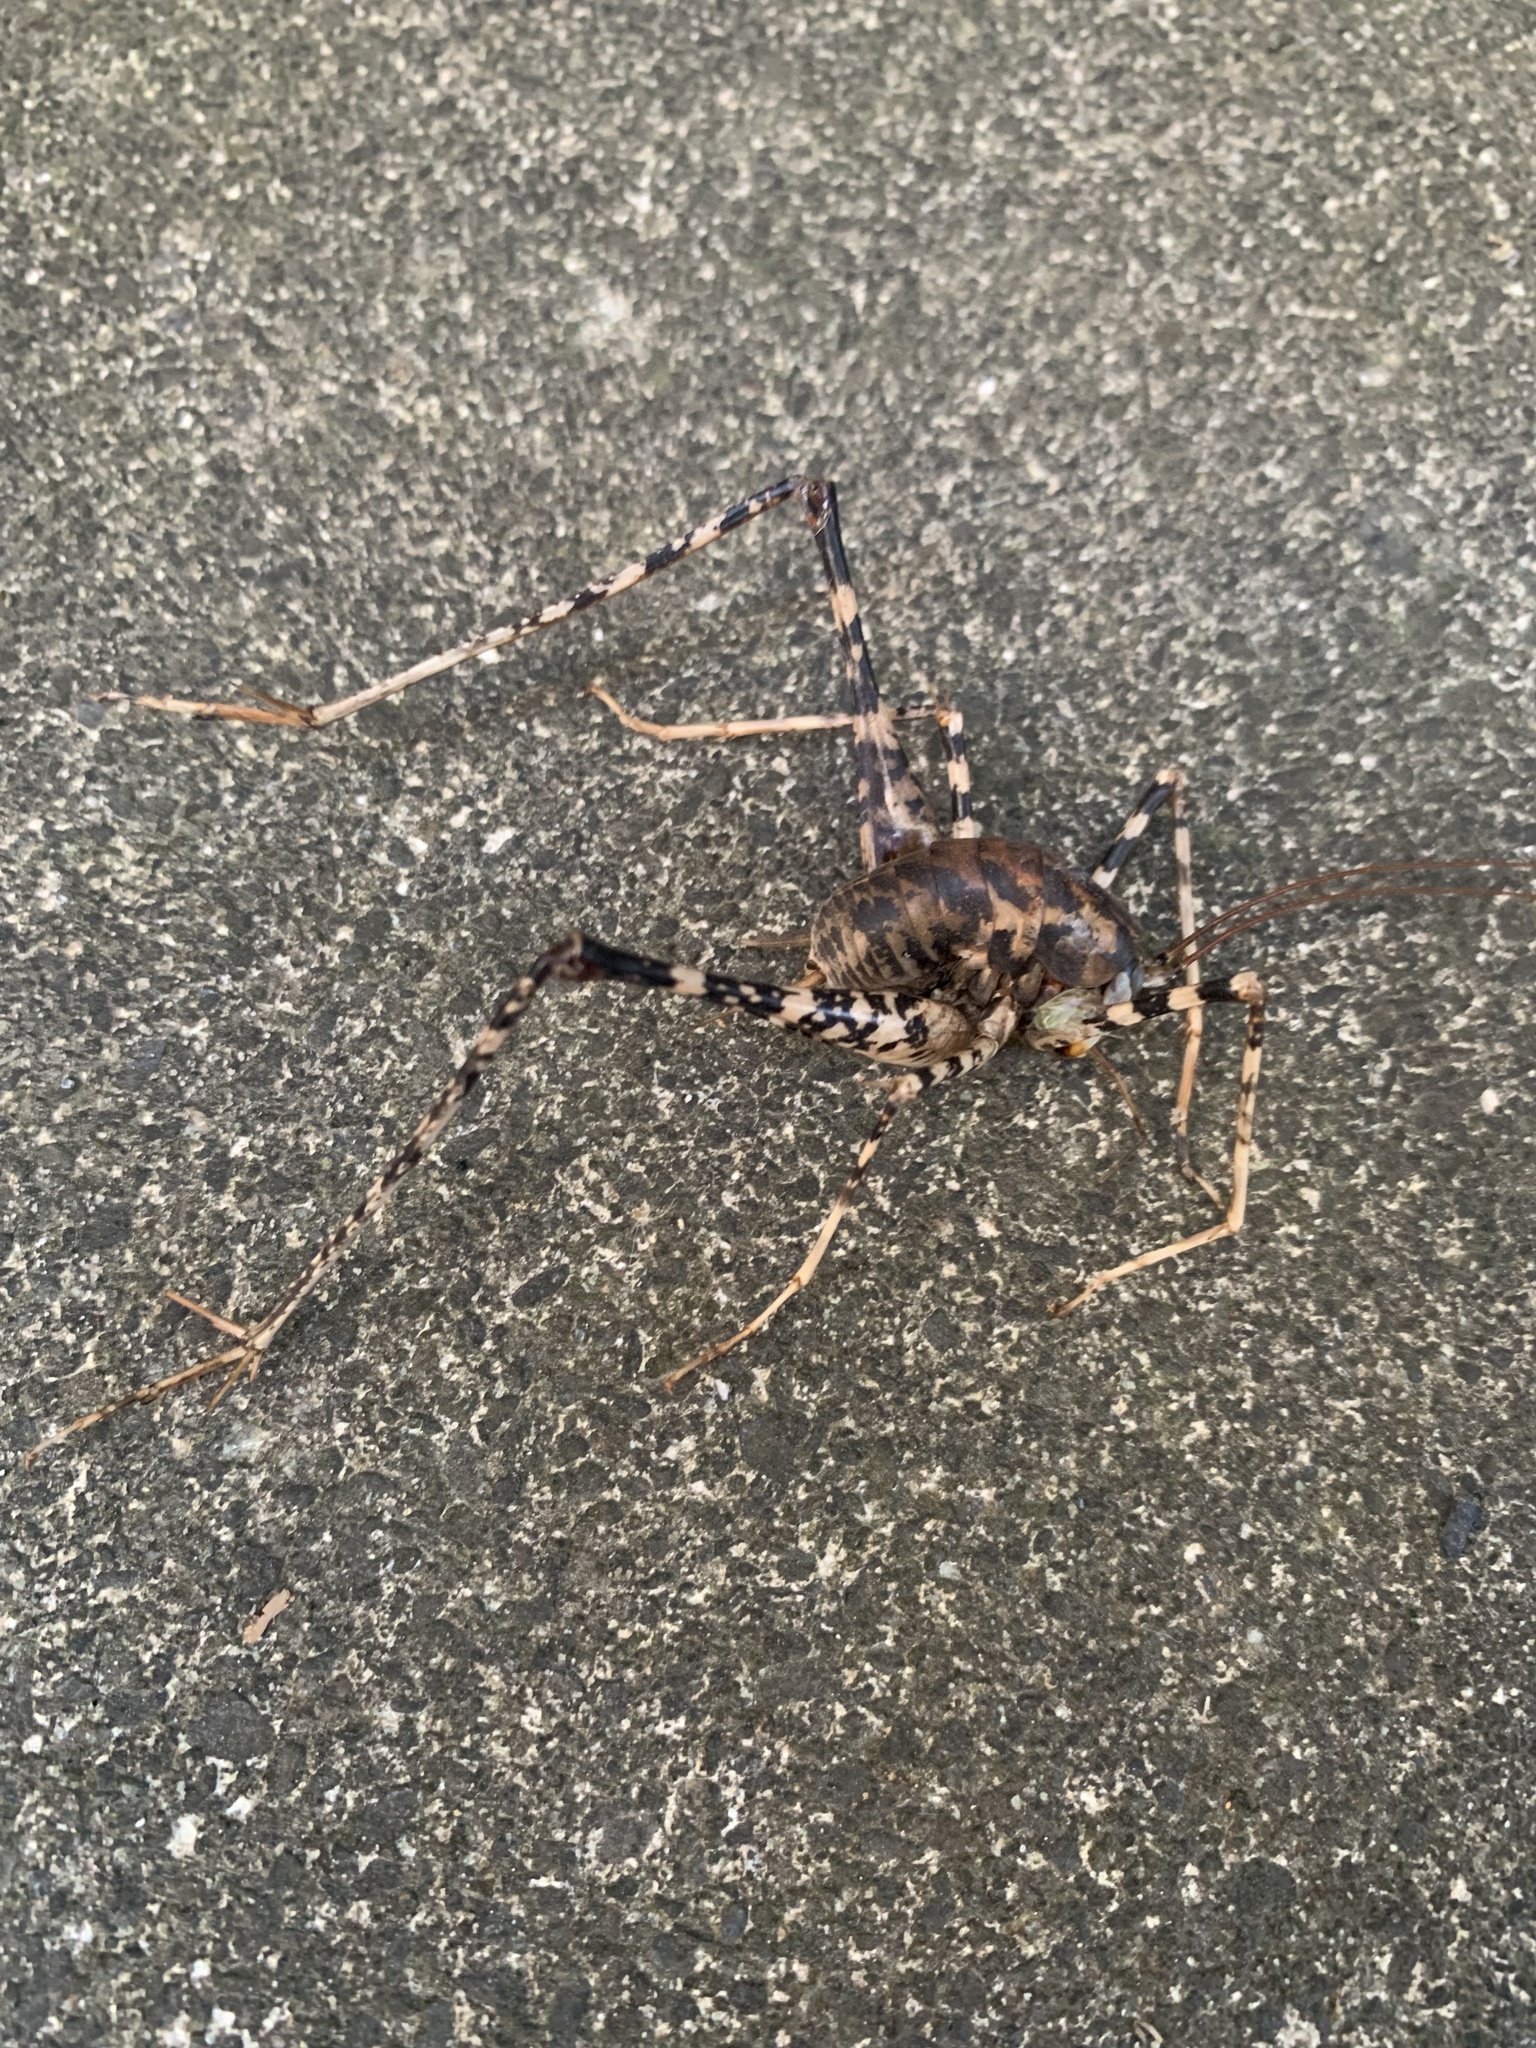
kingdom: Animalia
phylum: Arthropoda
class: Insecta
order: Orthoptera
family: Rhaphidophoridae
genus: Diestrammena
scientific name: Diestrammena japanica
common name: Japanese camel cricket
